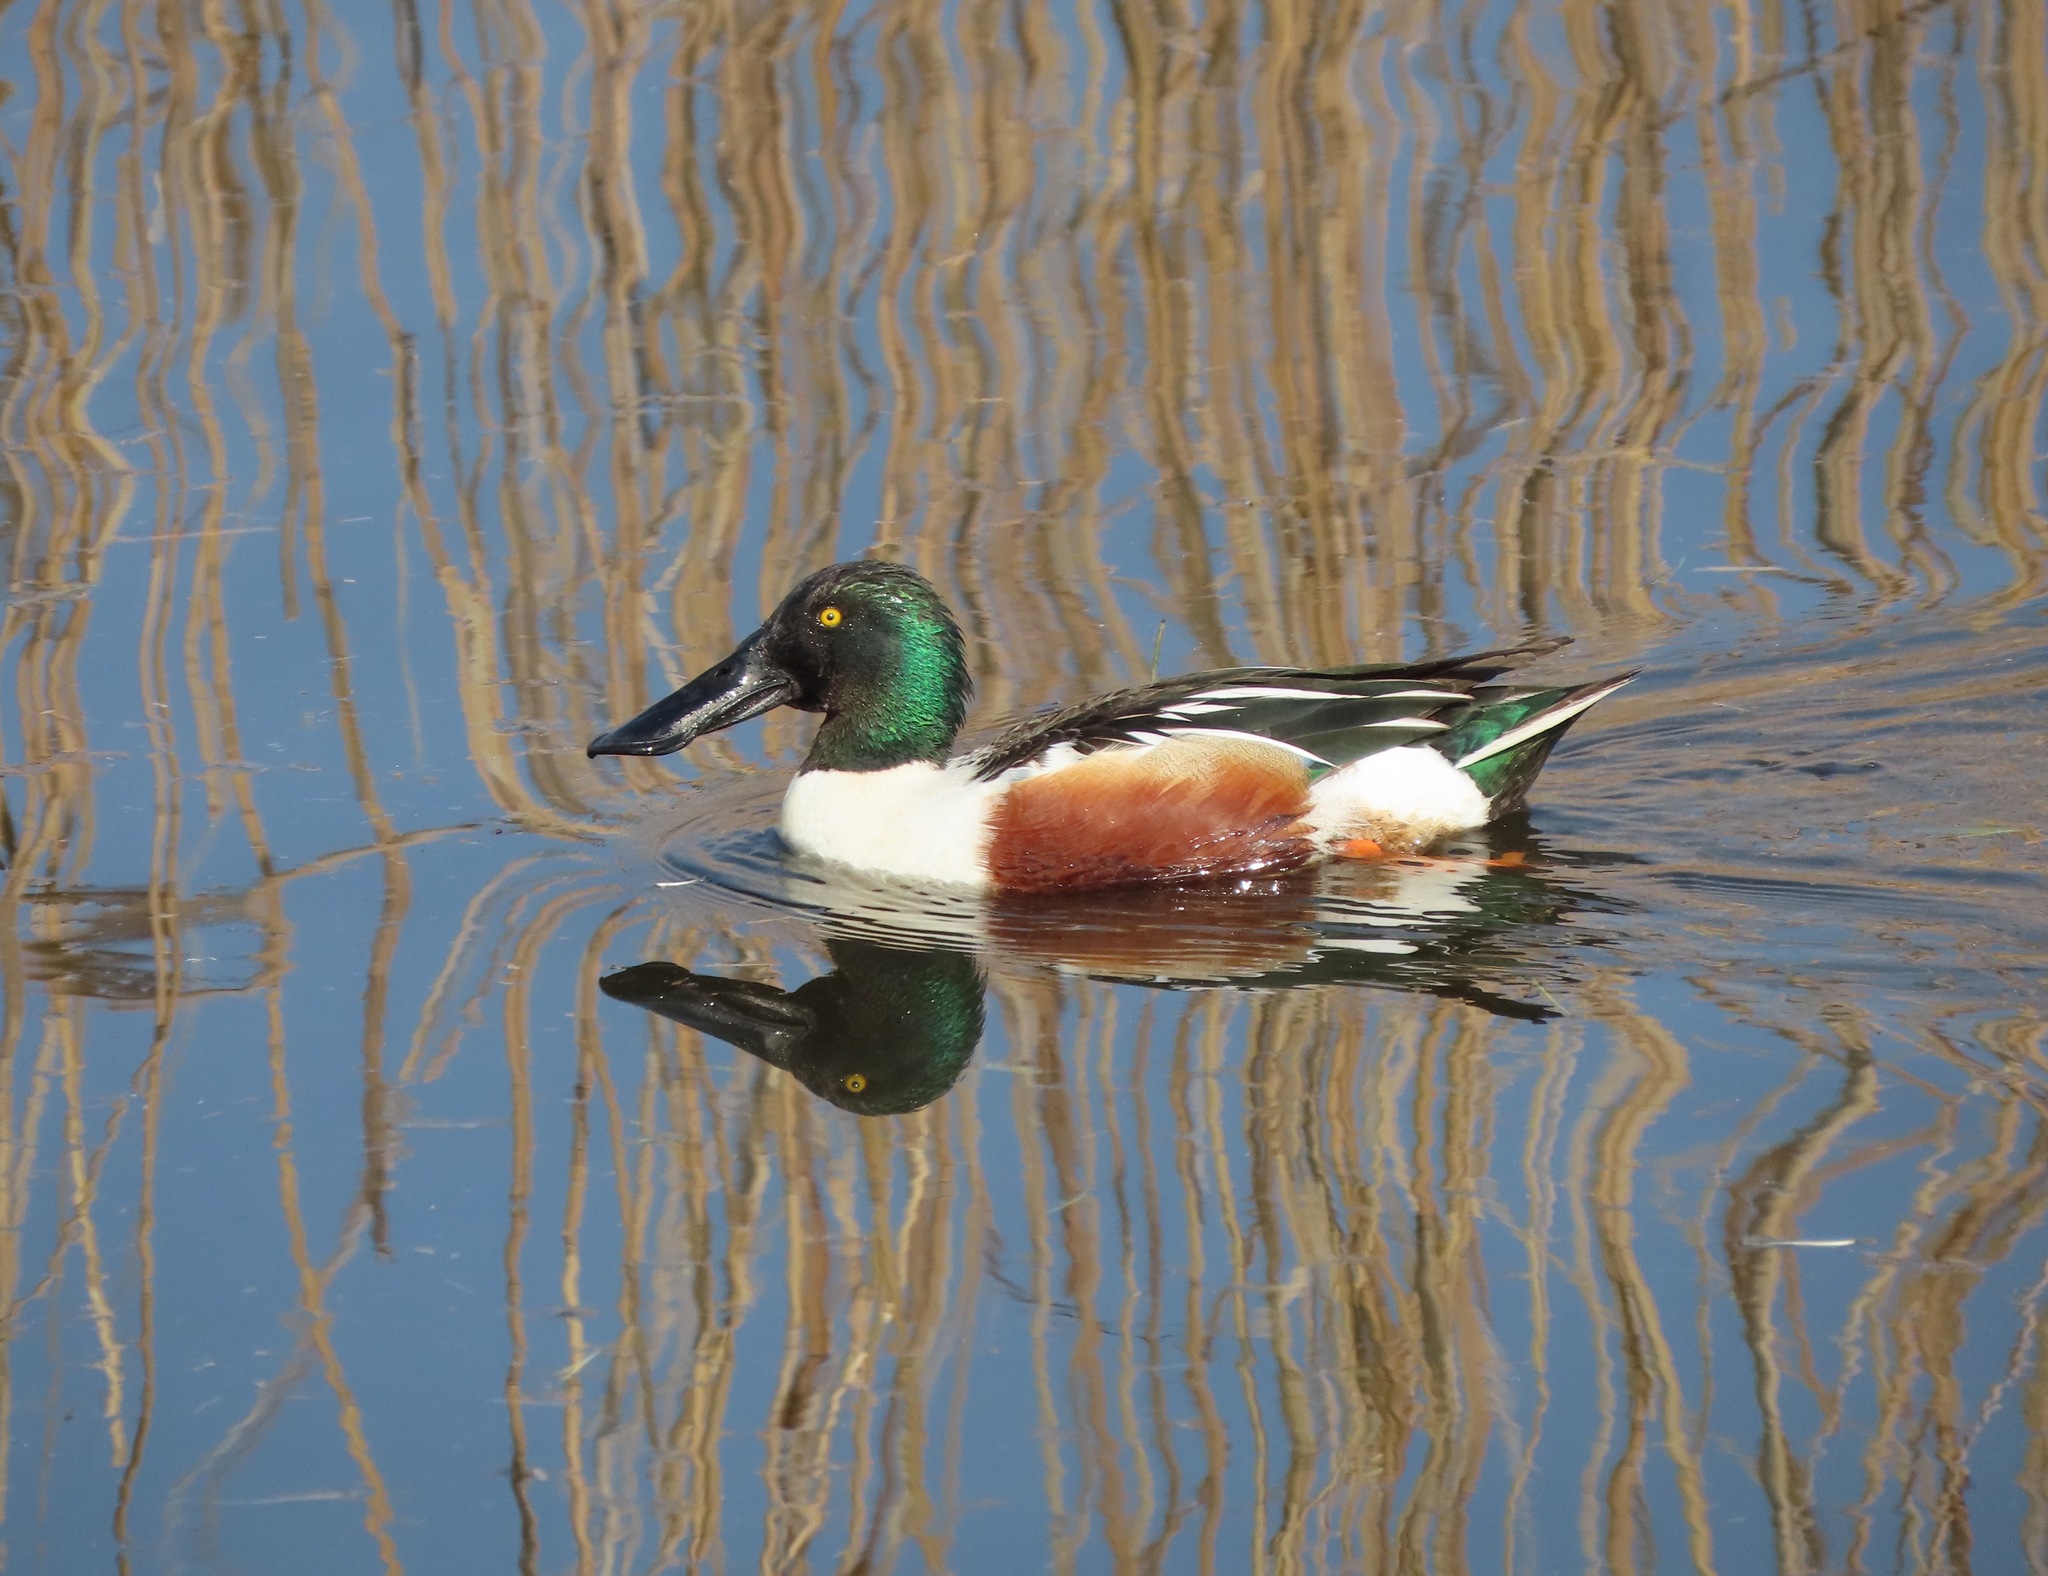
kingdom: Animalia
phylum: Chordata
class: Aves
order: Anseriformes
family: Anatidae
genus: Spatula
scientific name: Spatula clypeata
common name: Northern shoveler
